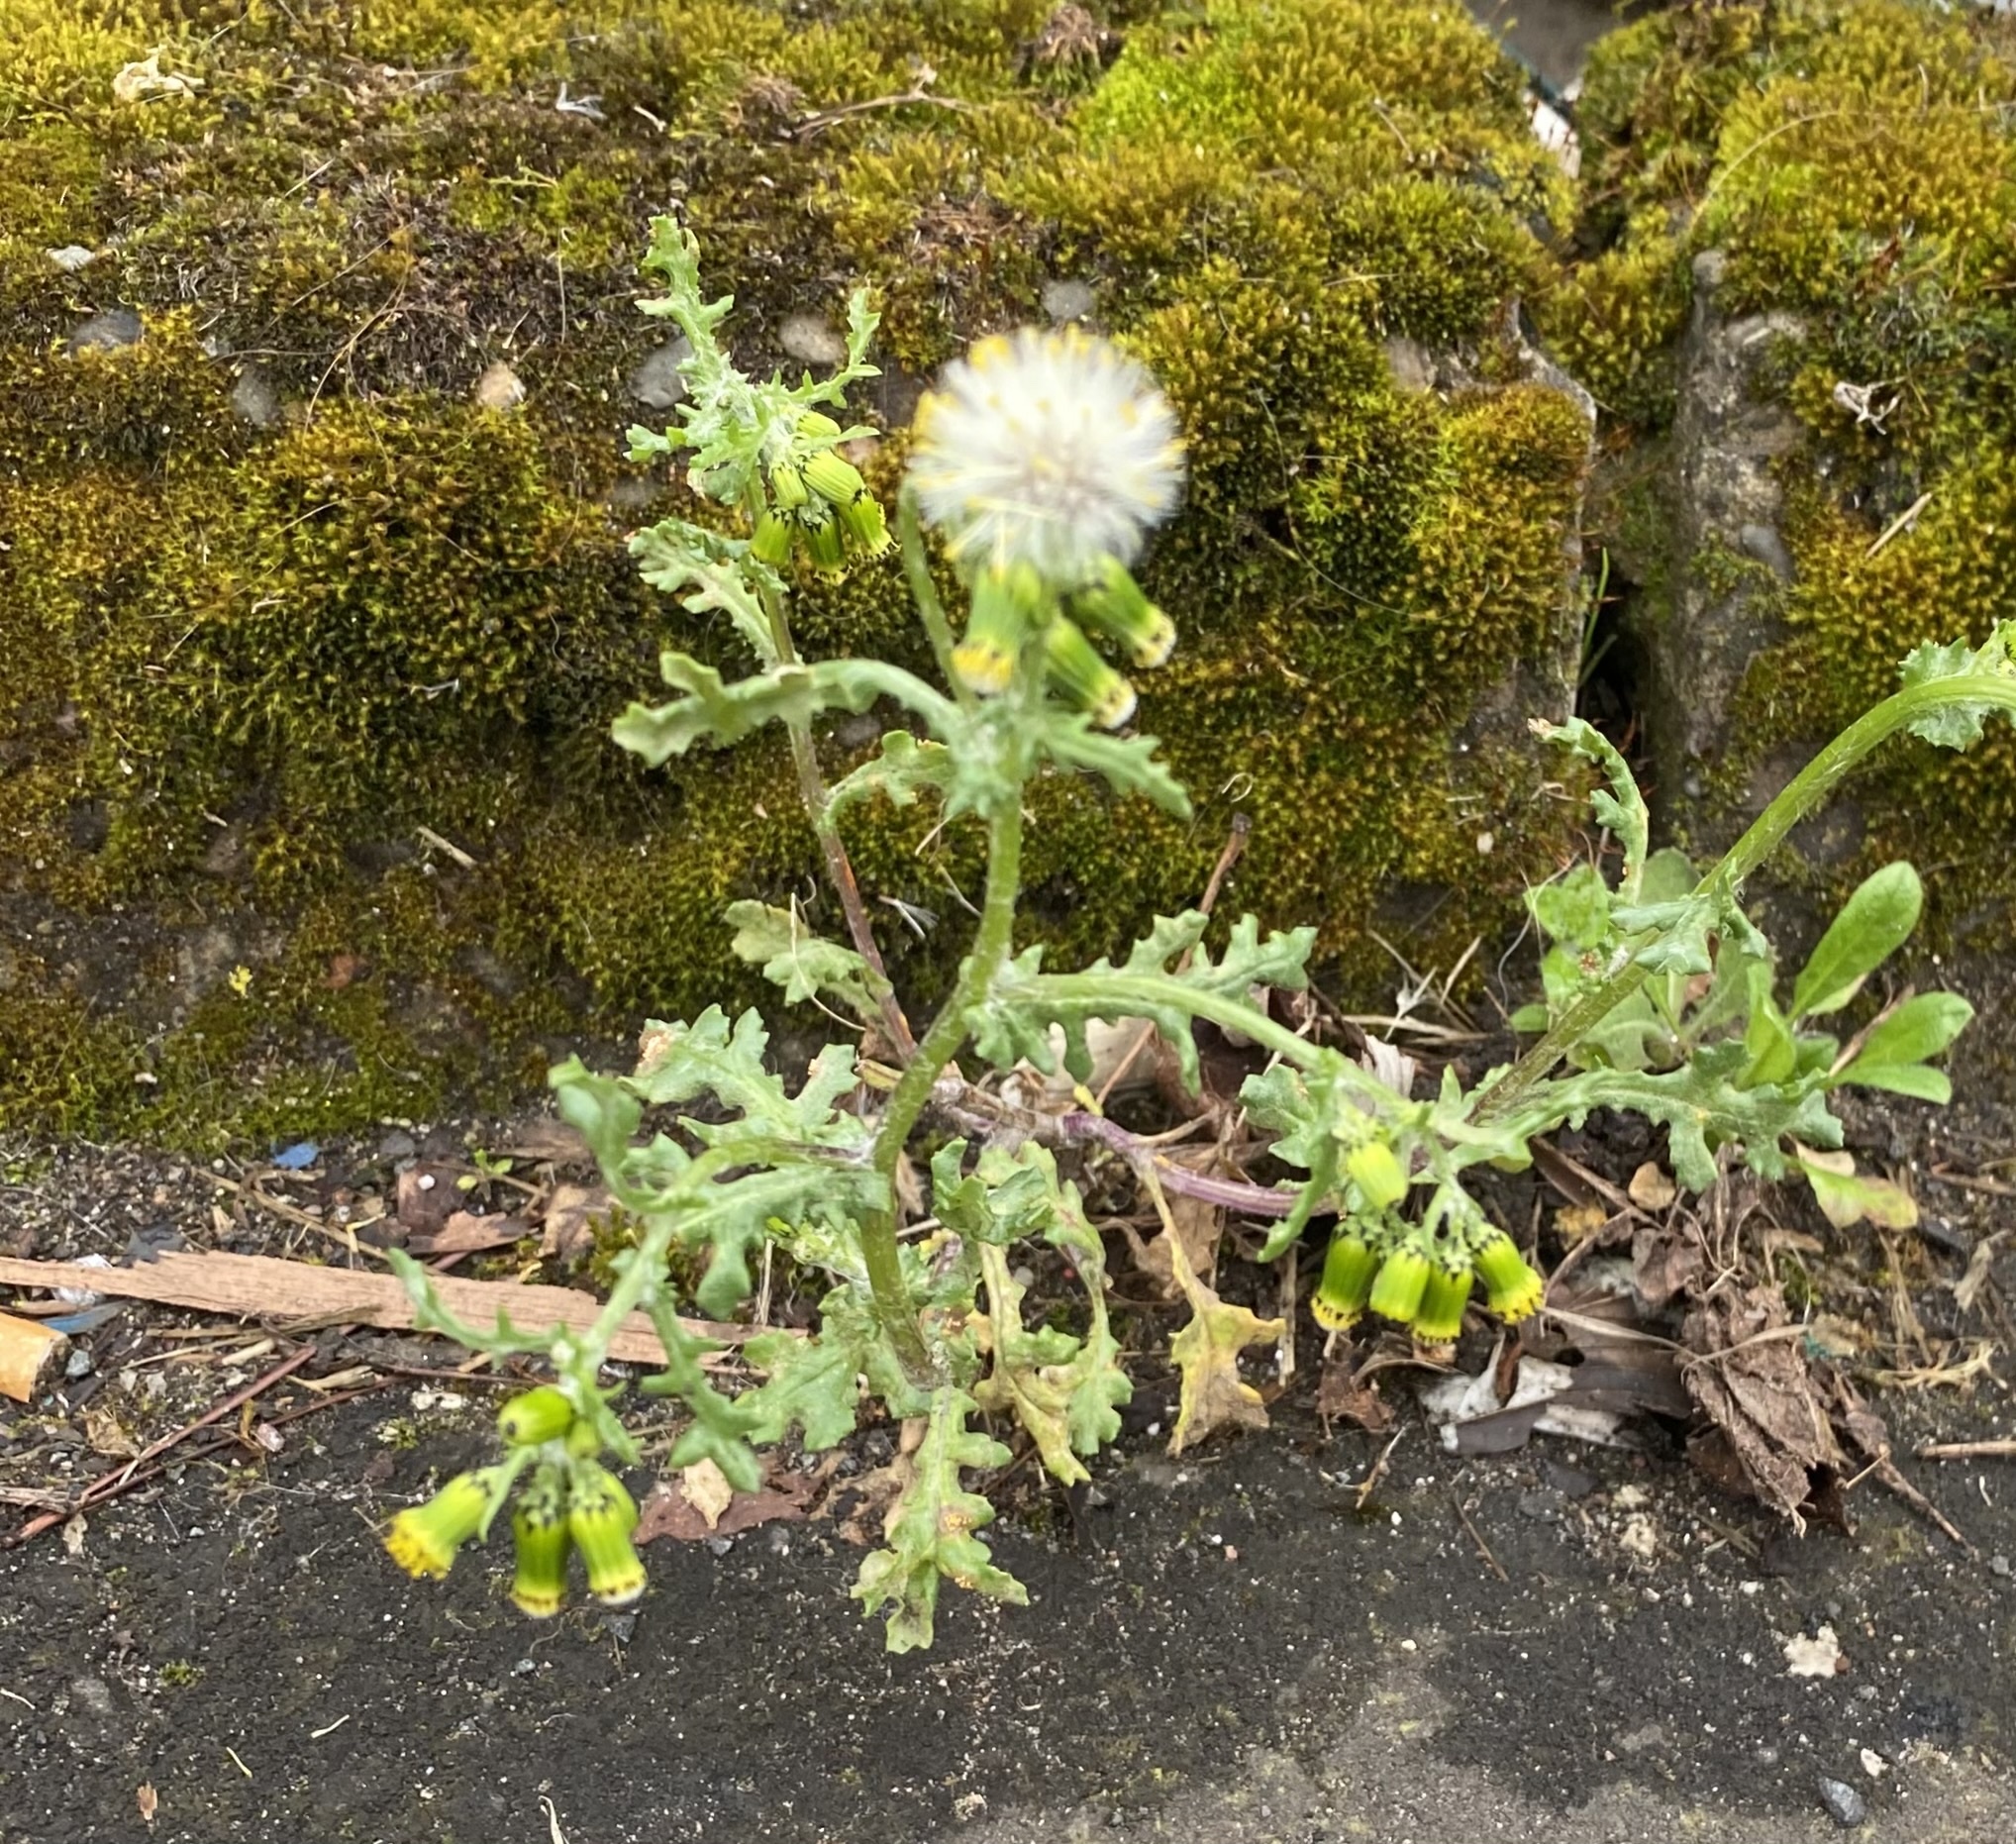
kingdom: Plantae
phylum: Tracheophyta
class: Magnoliopsida
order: Asterales
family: Asteraceae
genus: Senecio
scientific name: Senecio vulgaris
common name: Old-man-in-the-spring
